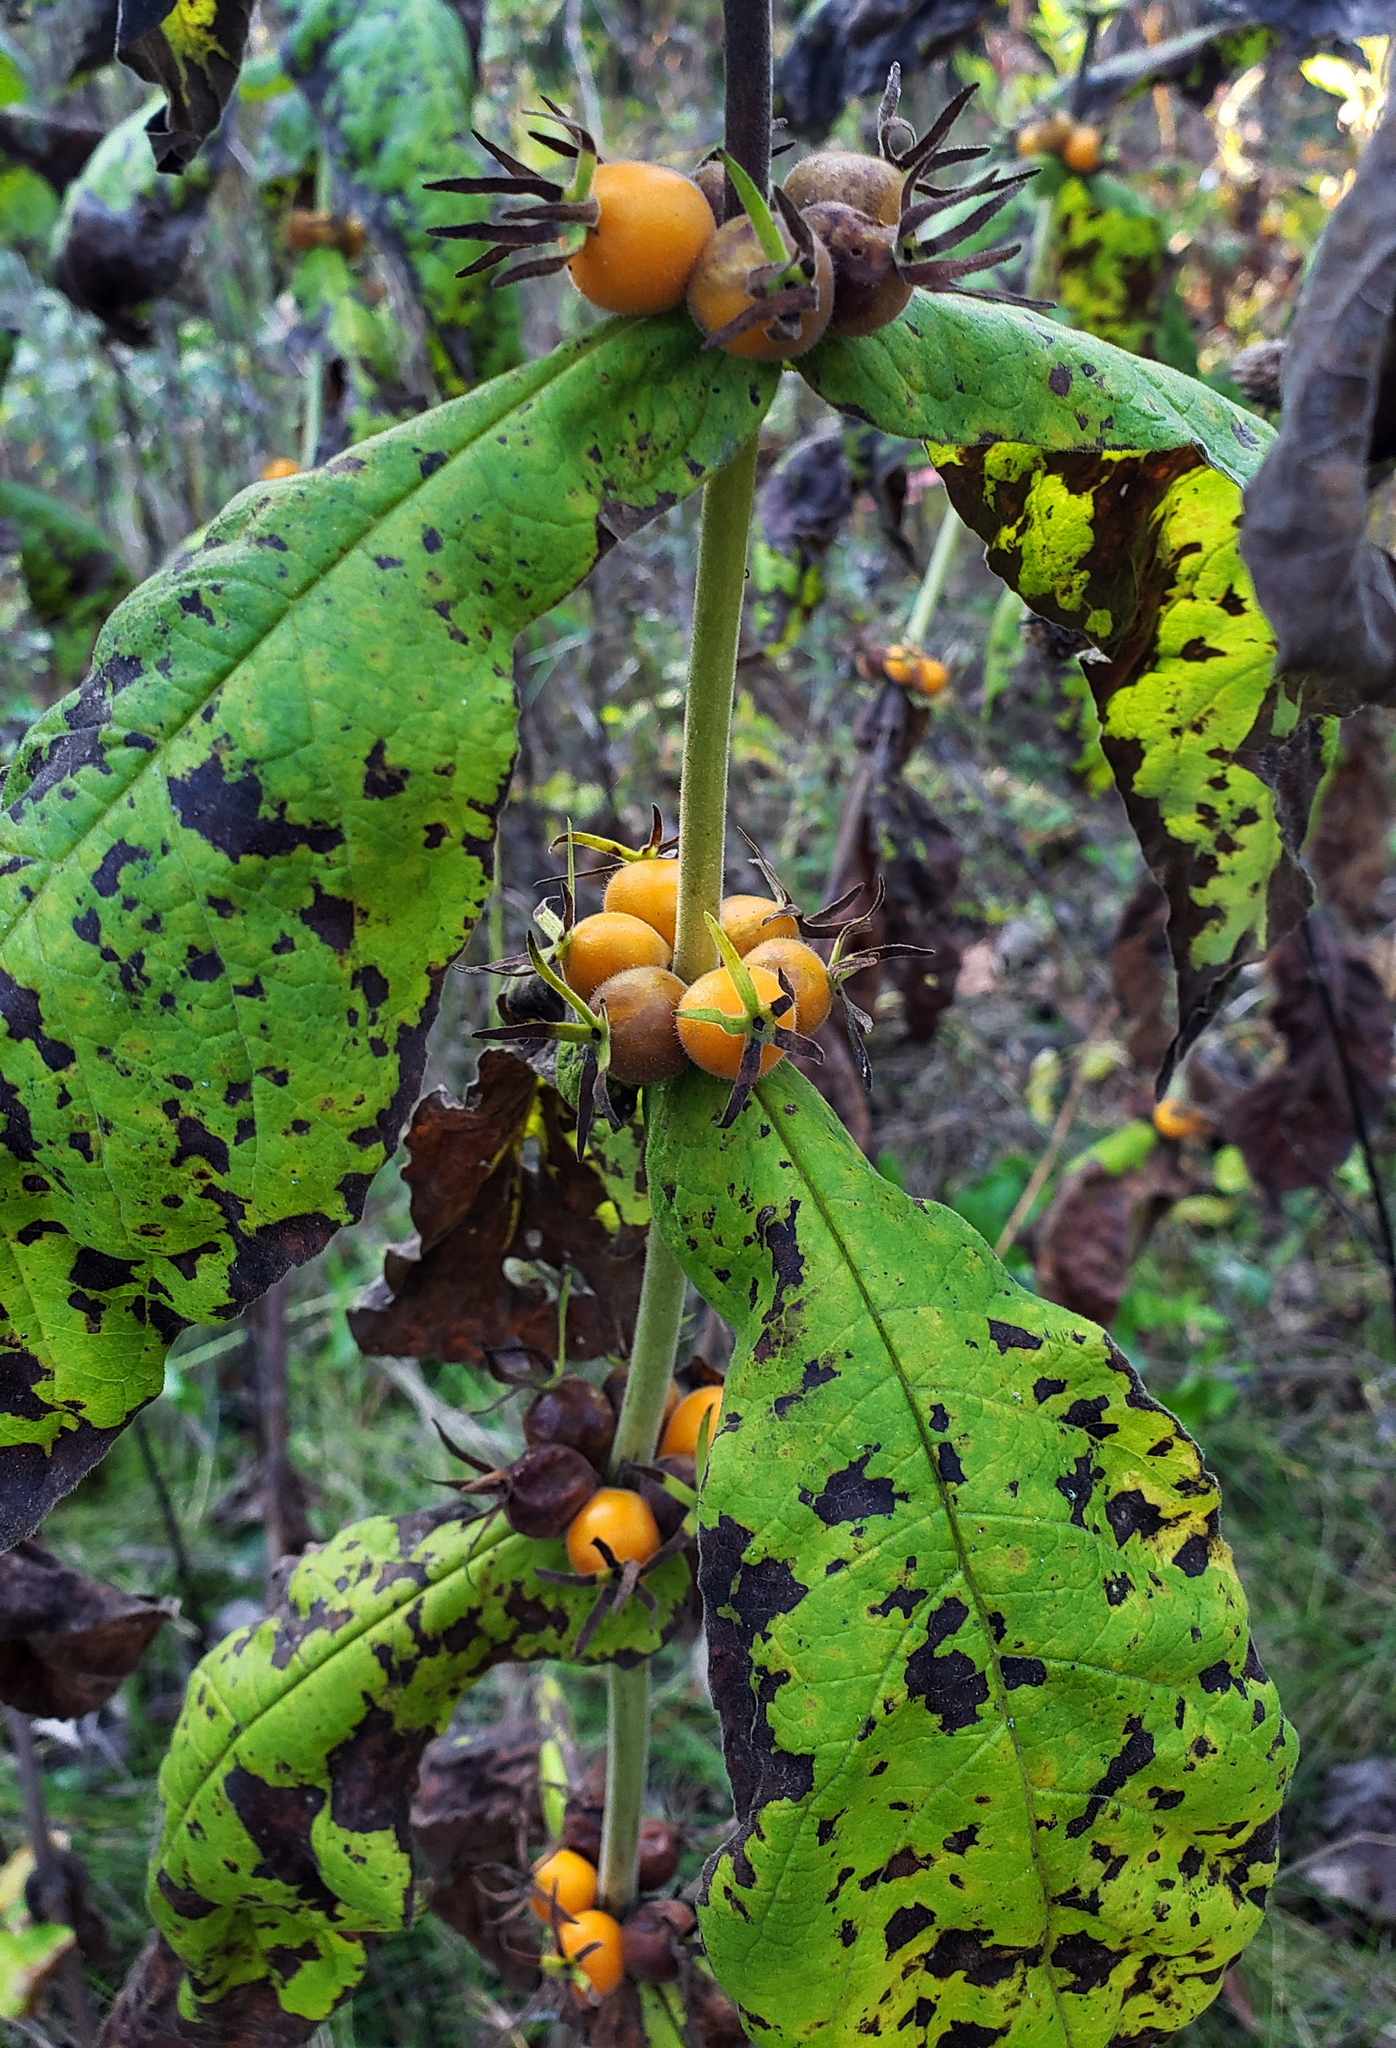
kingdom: Plantae
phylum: Tracheophyta
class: Magnoliopsida
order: Dipsacales
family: Caprifoliaceae
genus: Triosteum
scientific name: Triosteum aurantiacum
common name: Coffee tinker's-weed
